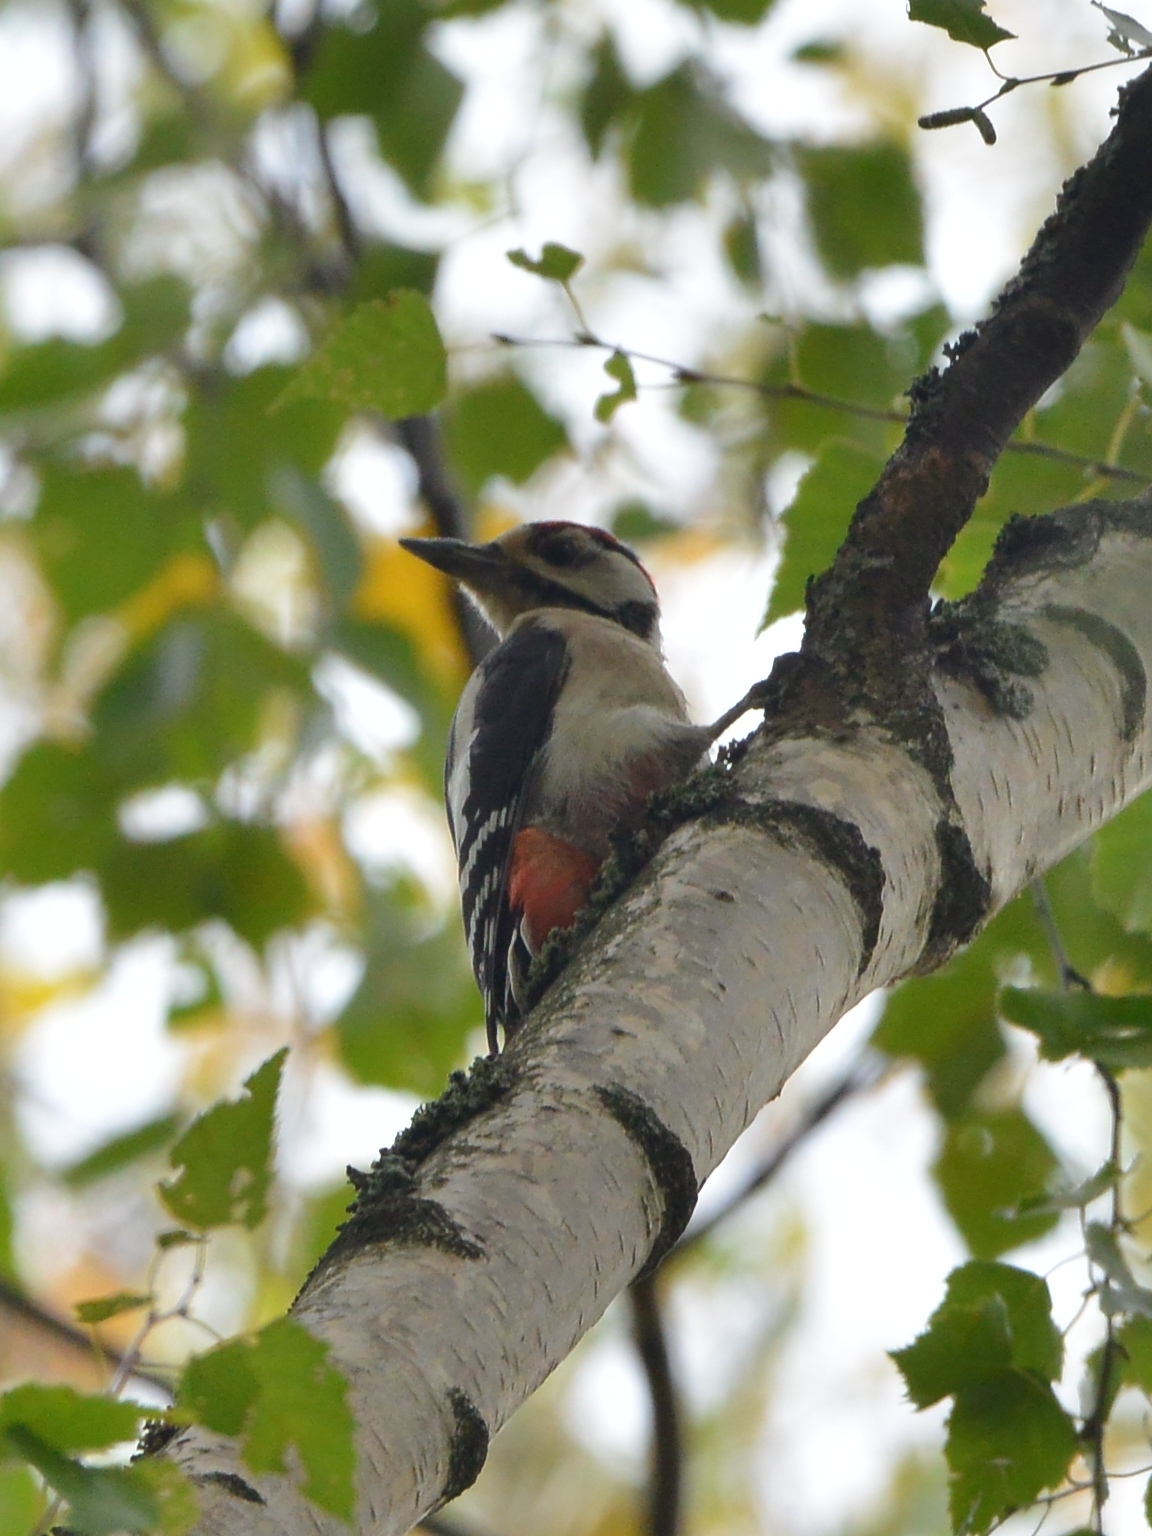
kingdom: Animalia
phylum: Chordata
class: Aves
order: Piciformes
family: Picidae
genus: Dendrocopos
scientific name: Dendrocopos major
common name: Great spotted woodpecker
